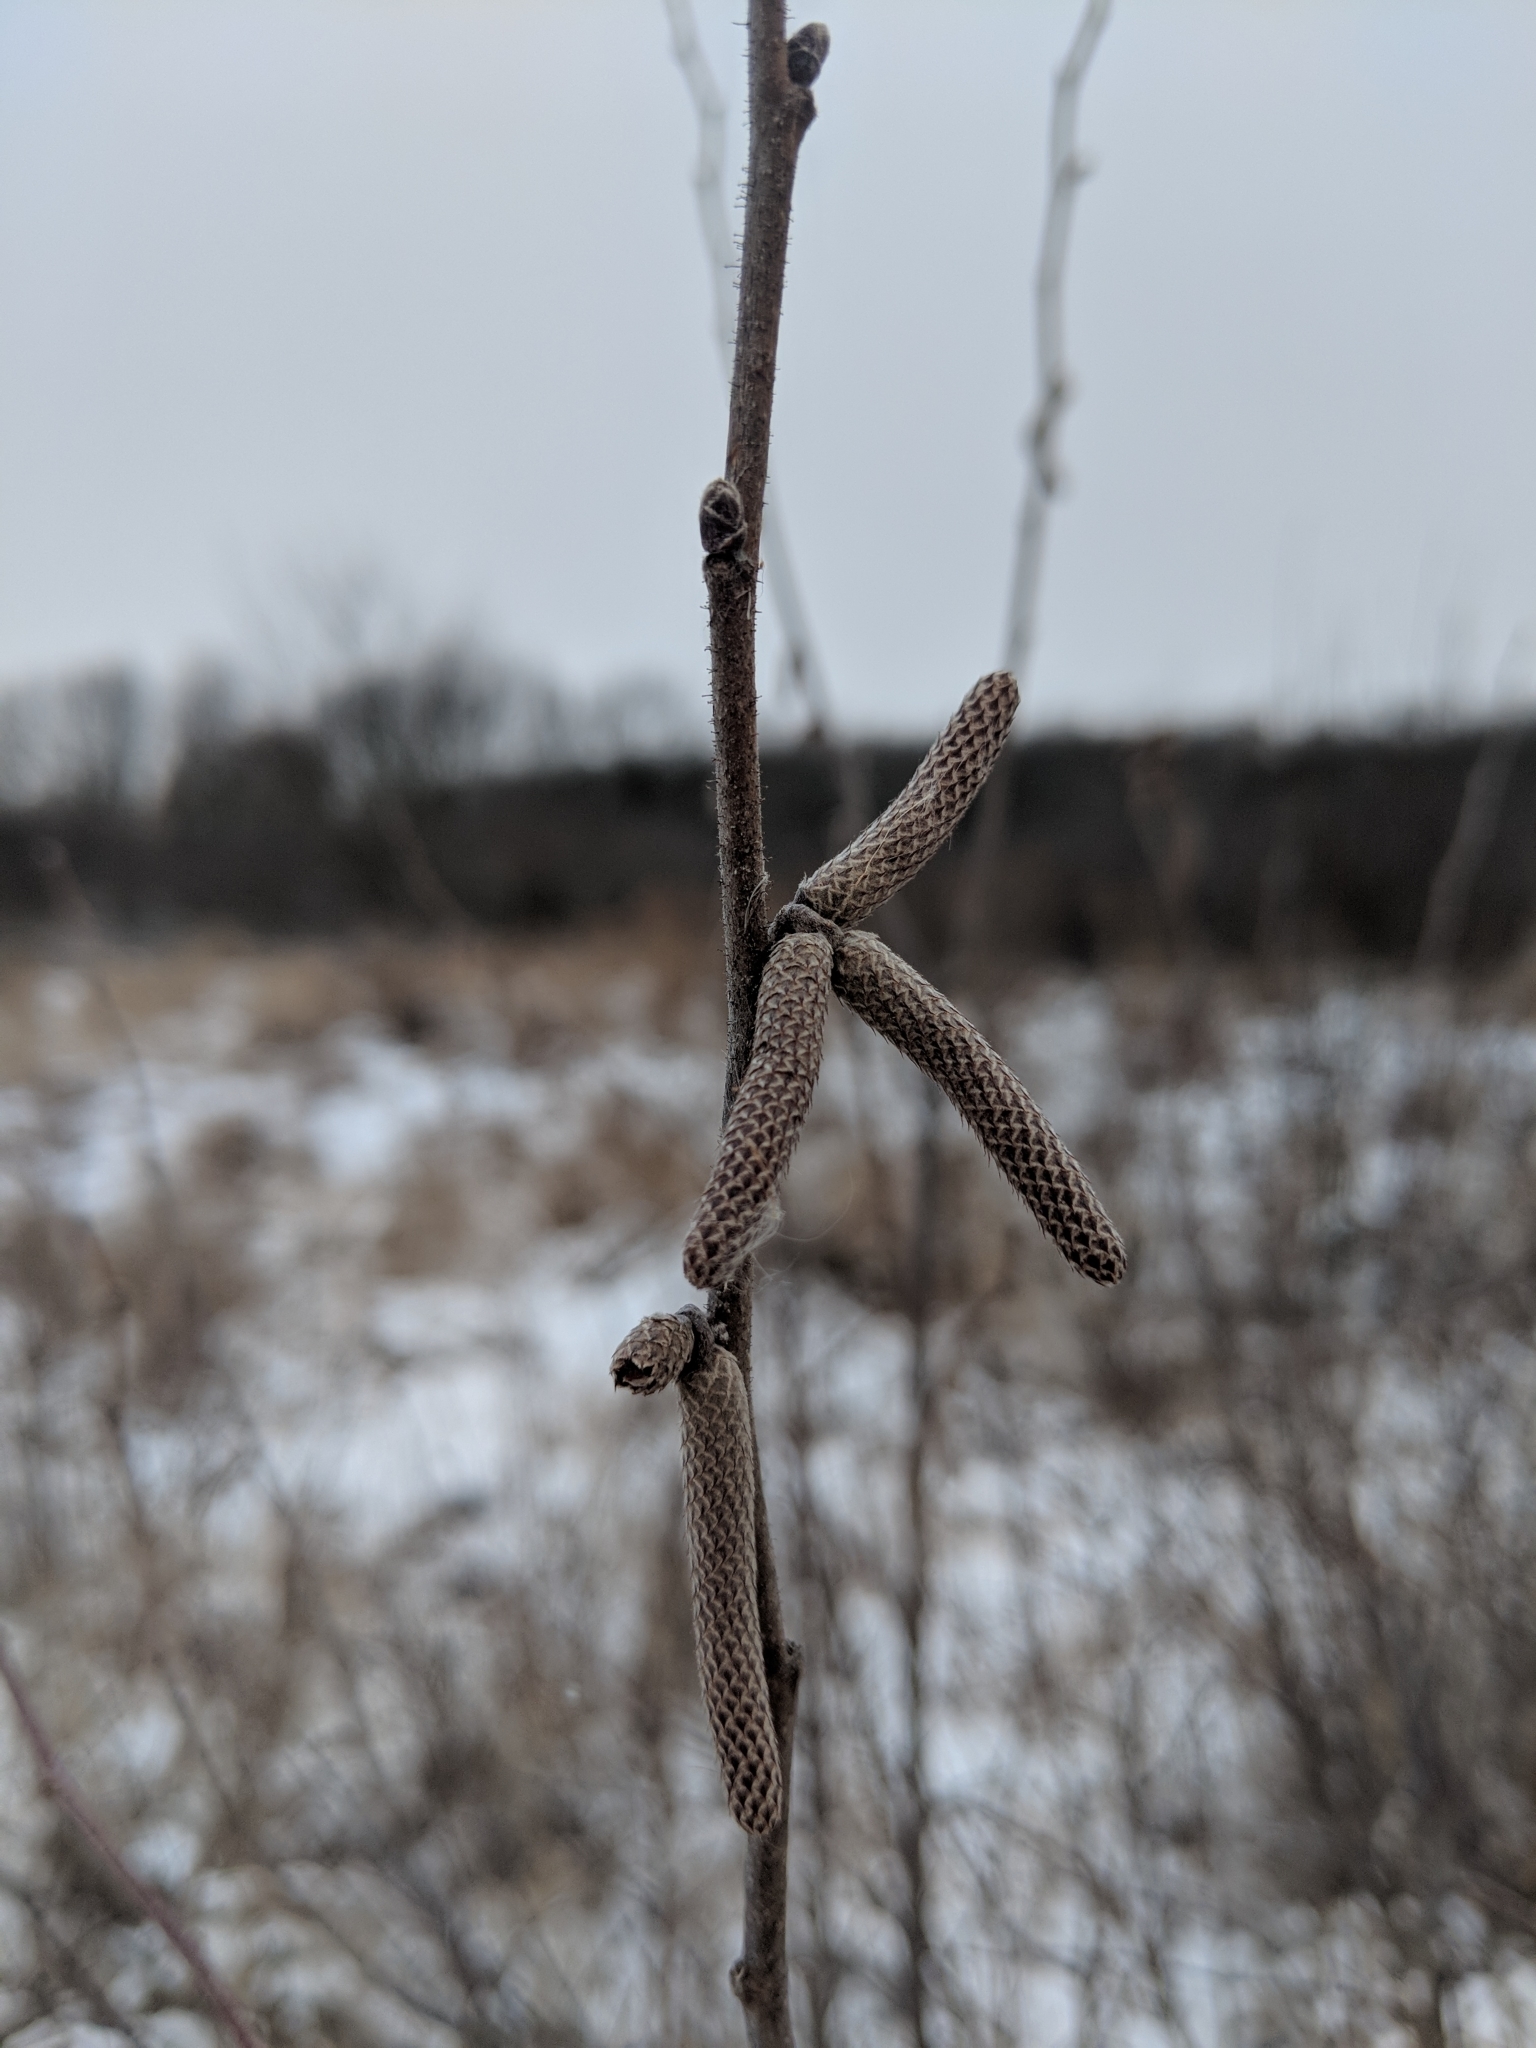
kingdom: Plantae
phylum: Tracheophyta
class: Magnoliopsida
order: Fagales
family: Betulaceae
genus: Corylus
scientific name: Corylus americana
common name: American hazel
